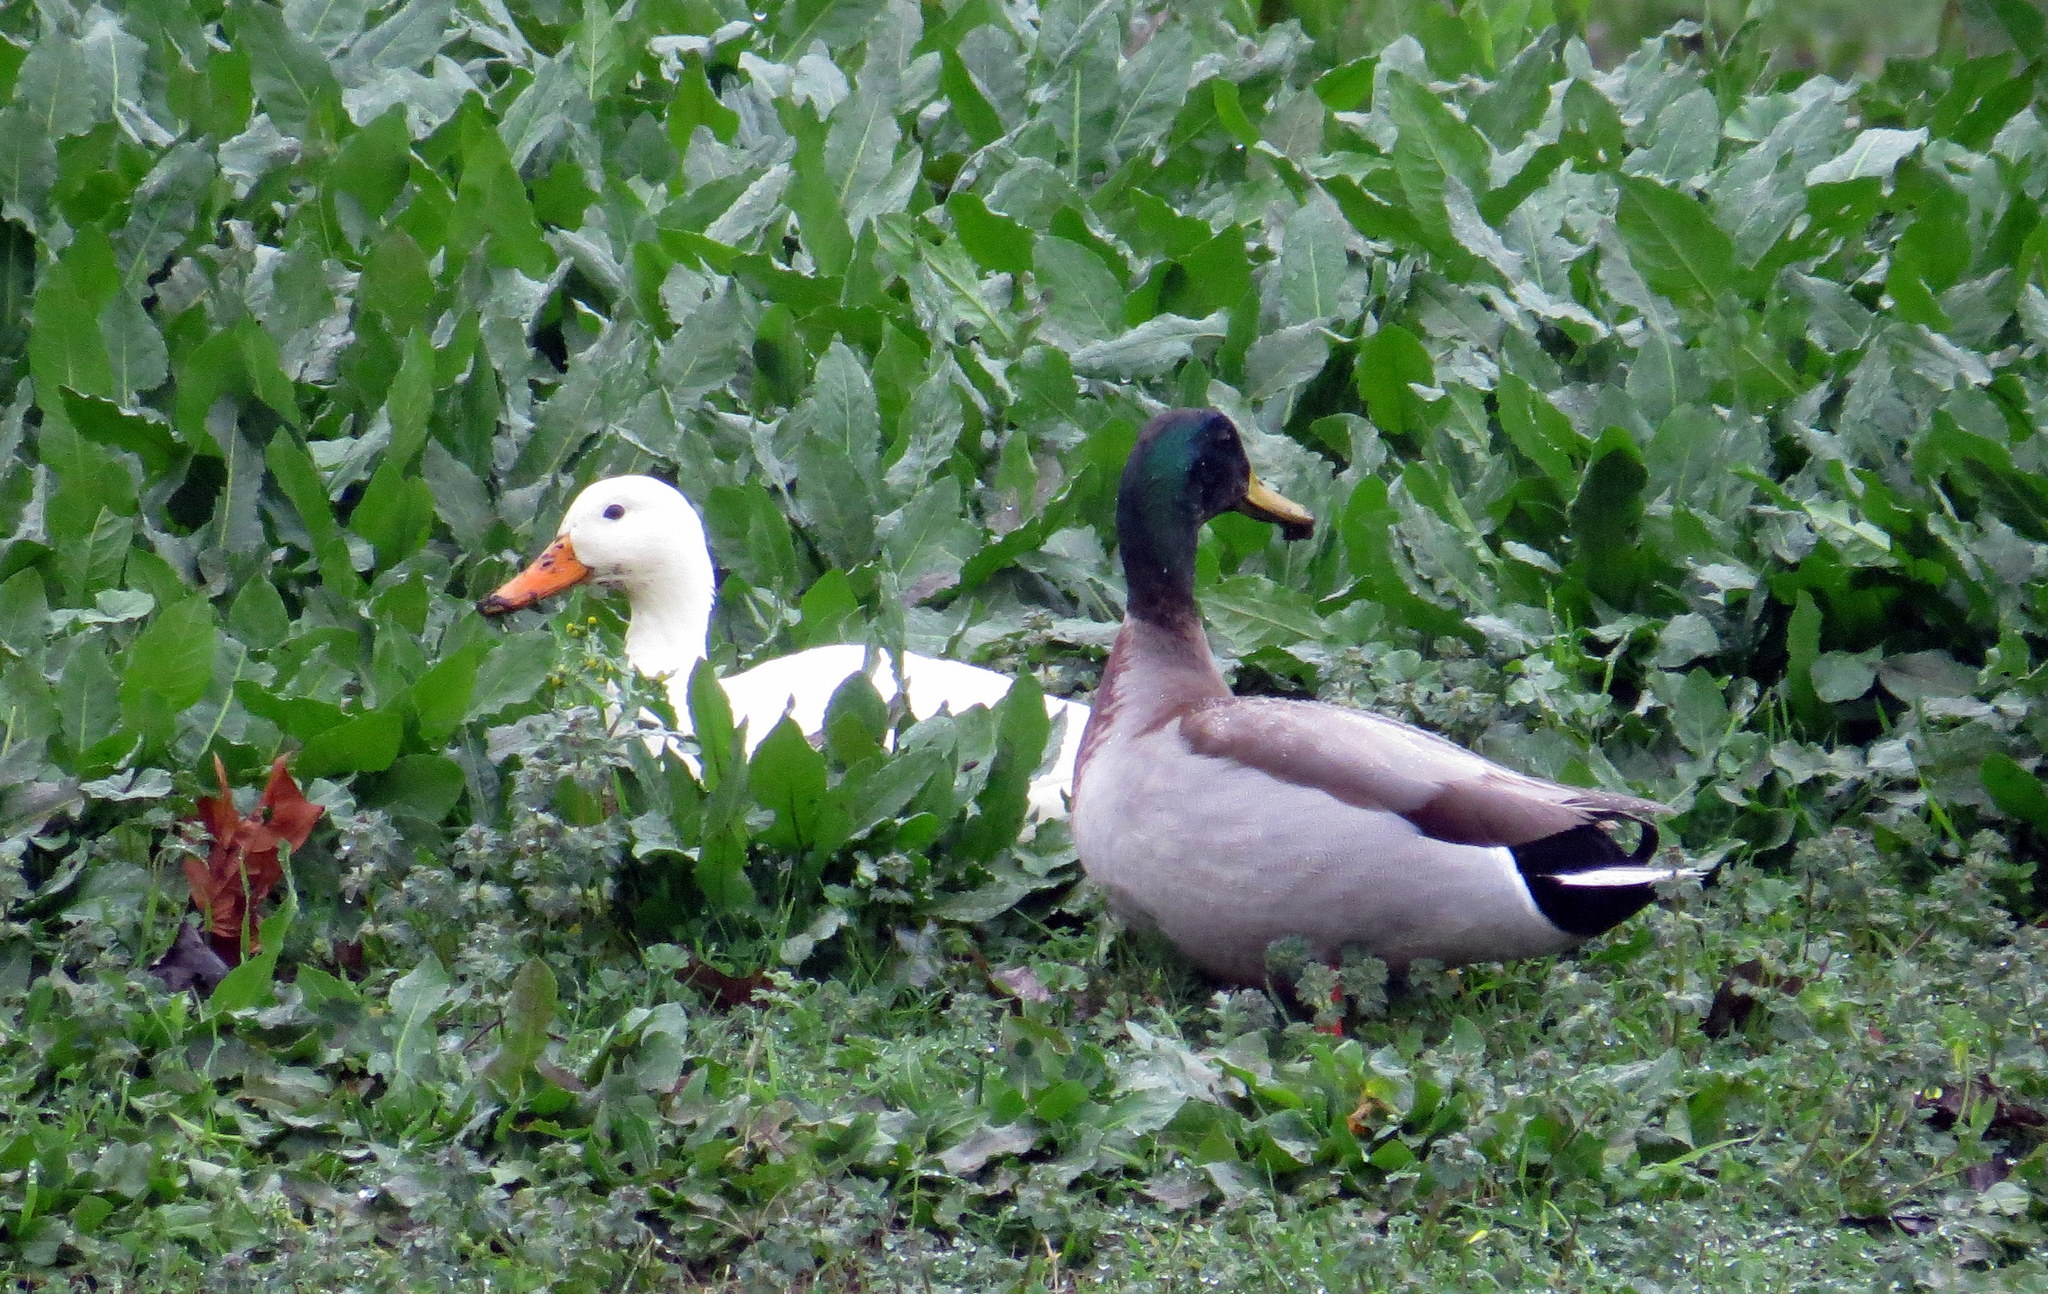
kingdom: Animalia
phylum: Chordata
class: Aves
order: Anseriformes
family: Anatidae
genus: Anas
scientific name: Anas platyrhynchos
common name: Mallard
